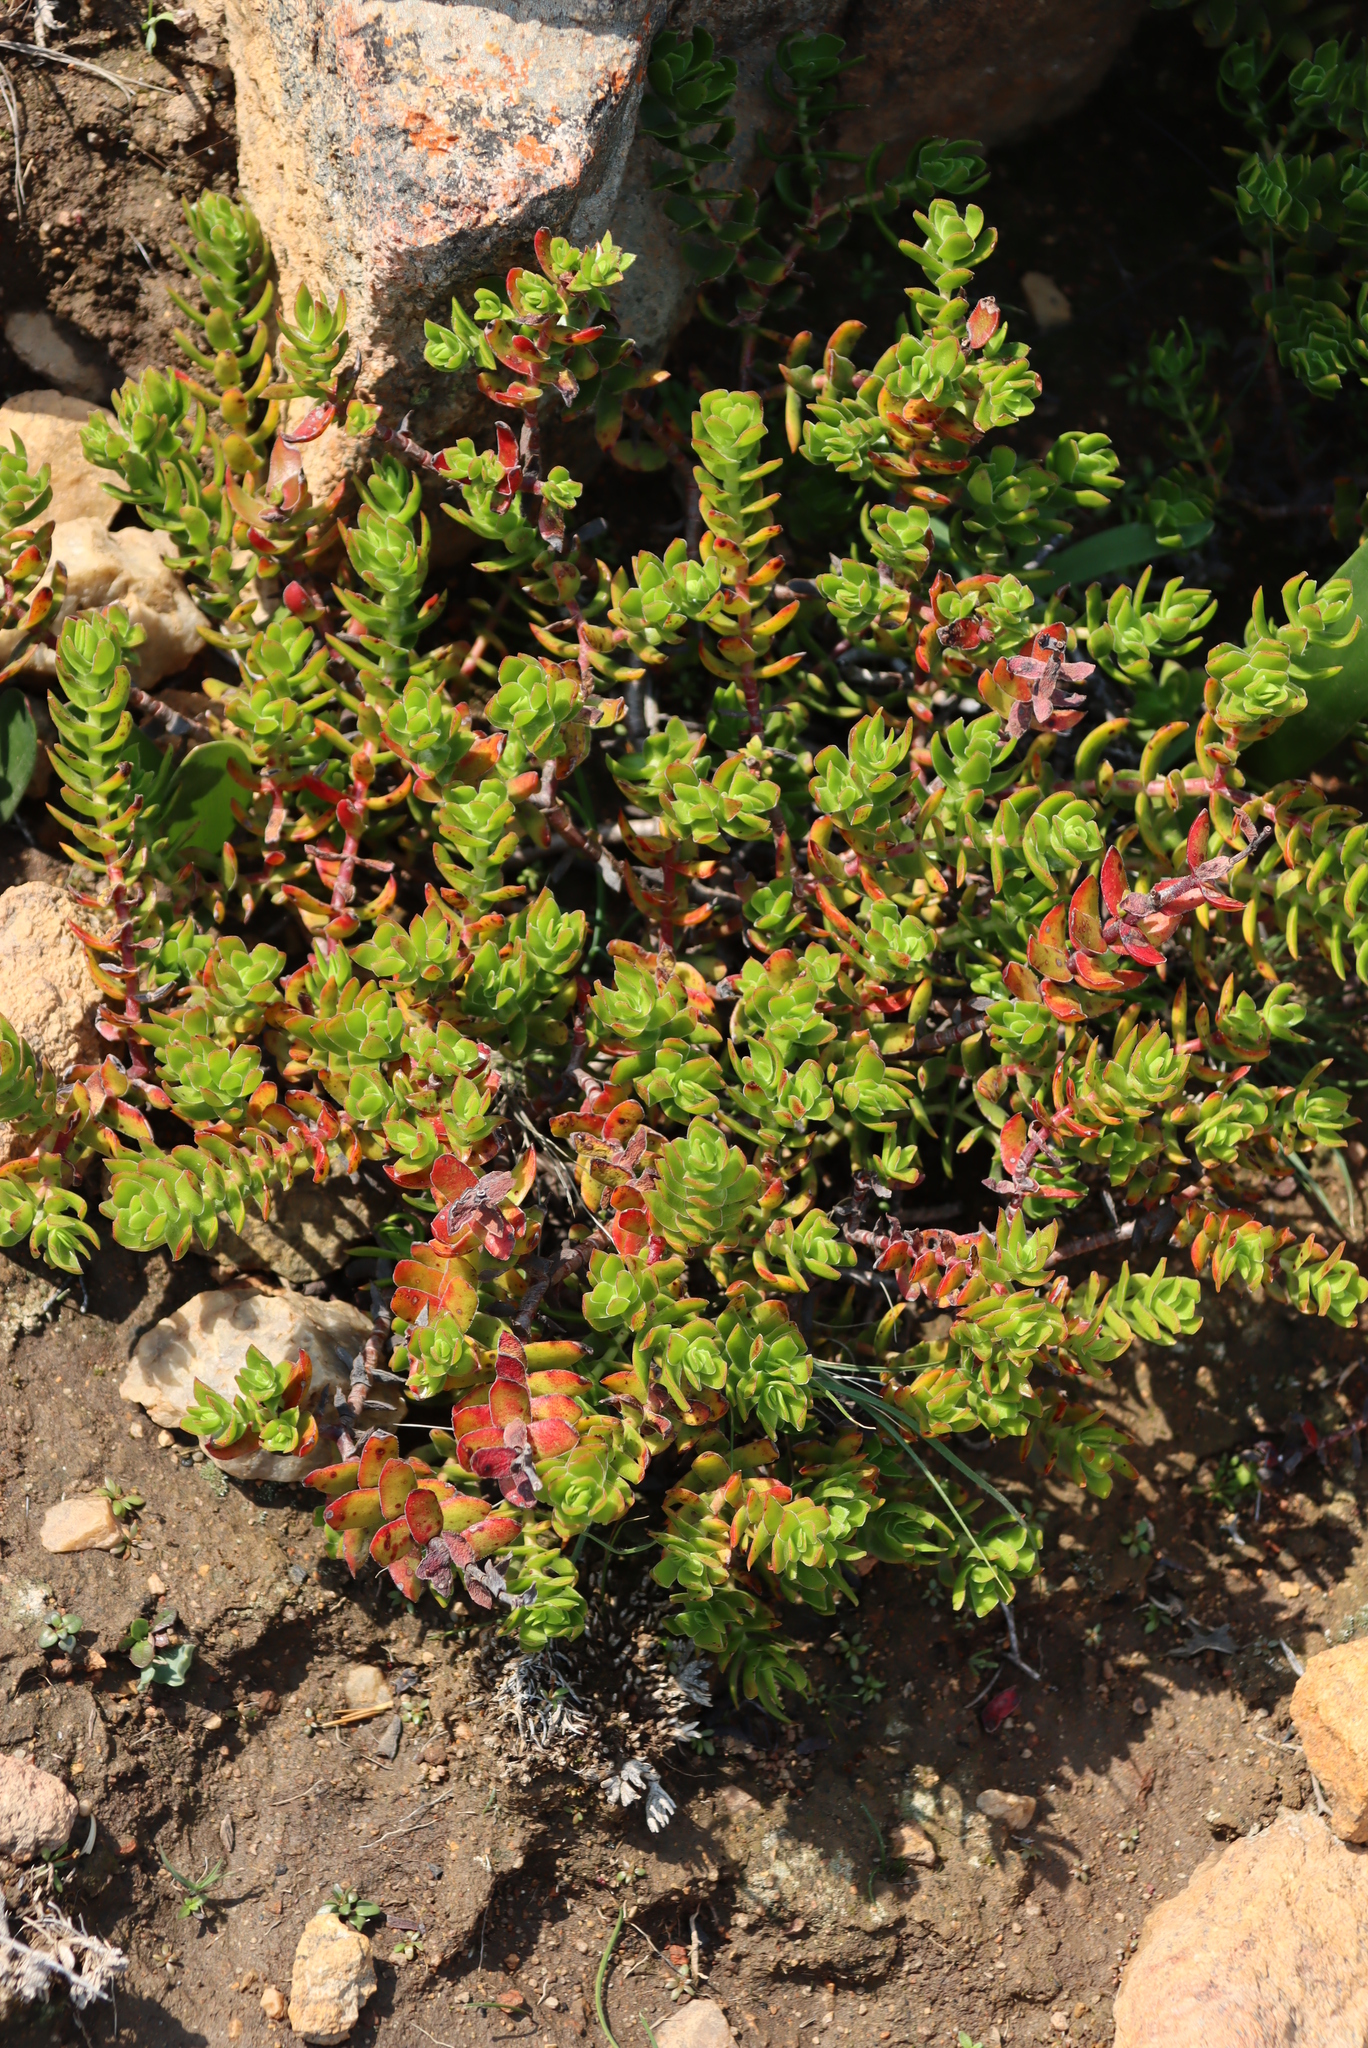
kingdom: Plantae
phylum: Tracheophyta
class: Magnoliopsida
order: Saxifragales
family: Crassulaceae
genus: Crassula
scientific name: Crassula undulata
